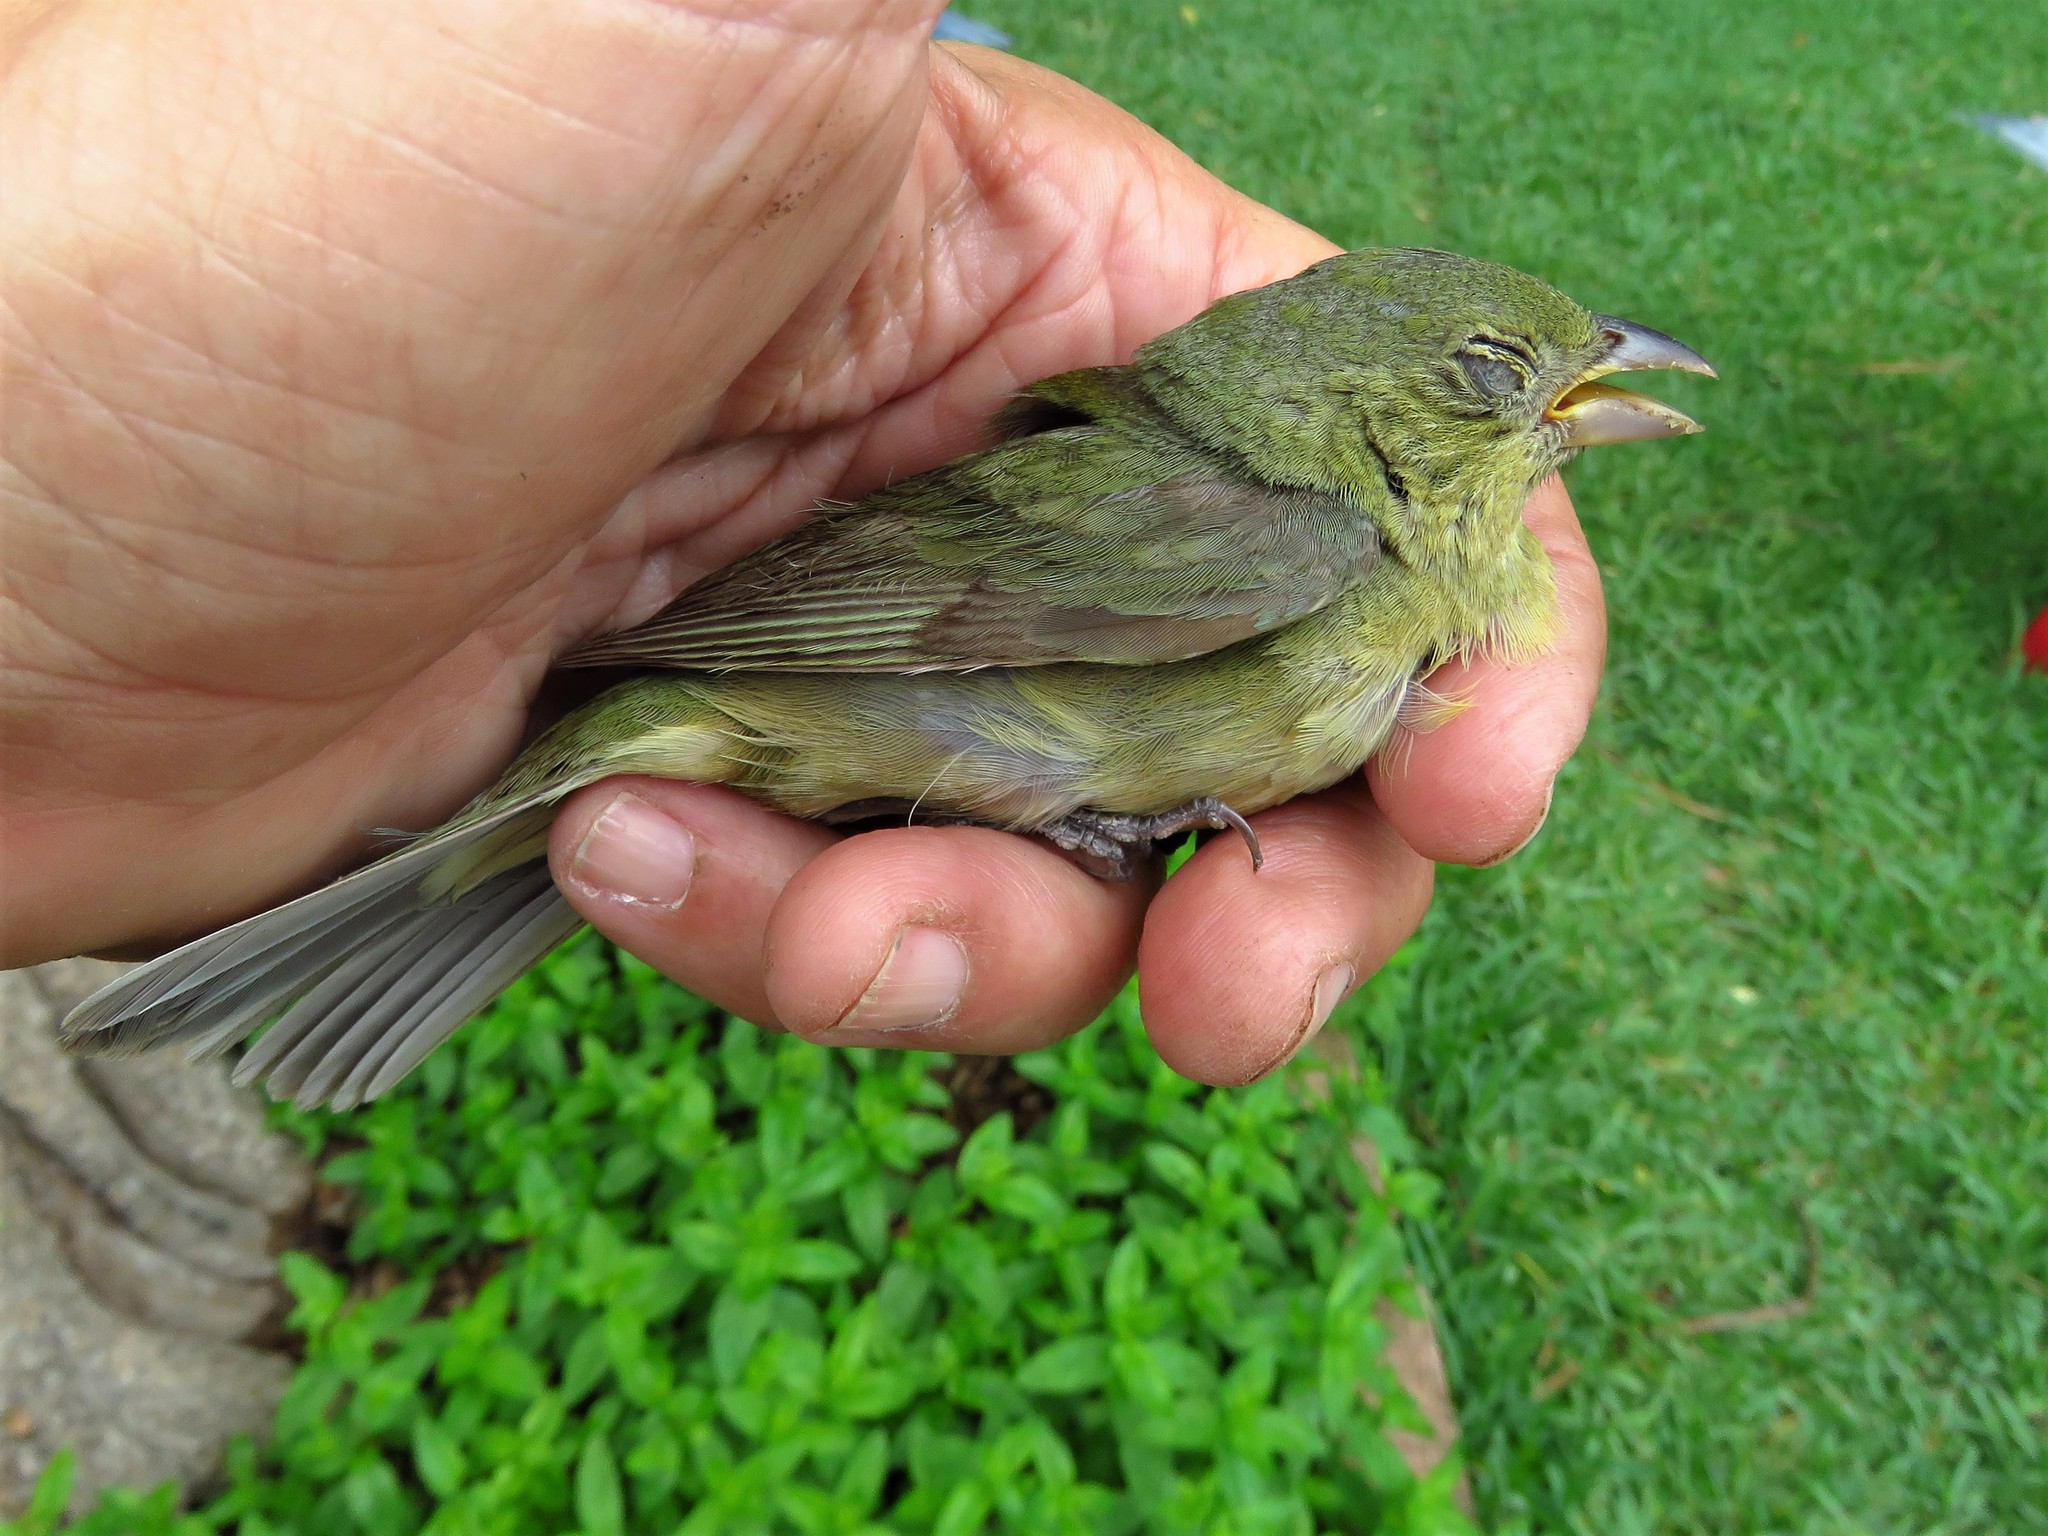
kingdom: Animalia
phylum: Chordata
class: Aves
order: Passeriformes
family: Cardinalidae
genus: Passerina
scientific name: Passerina ciris
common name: Painted bunting
